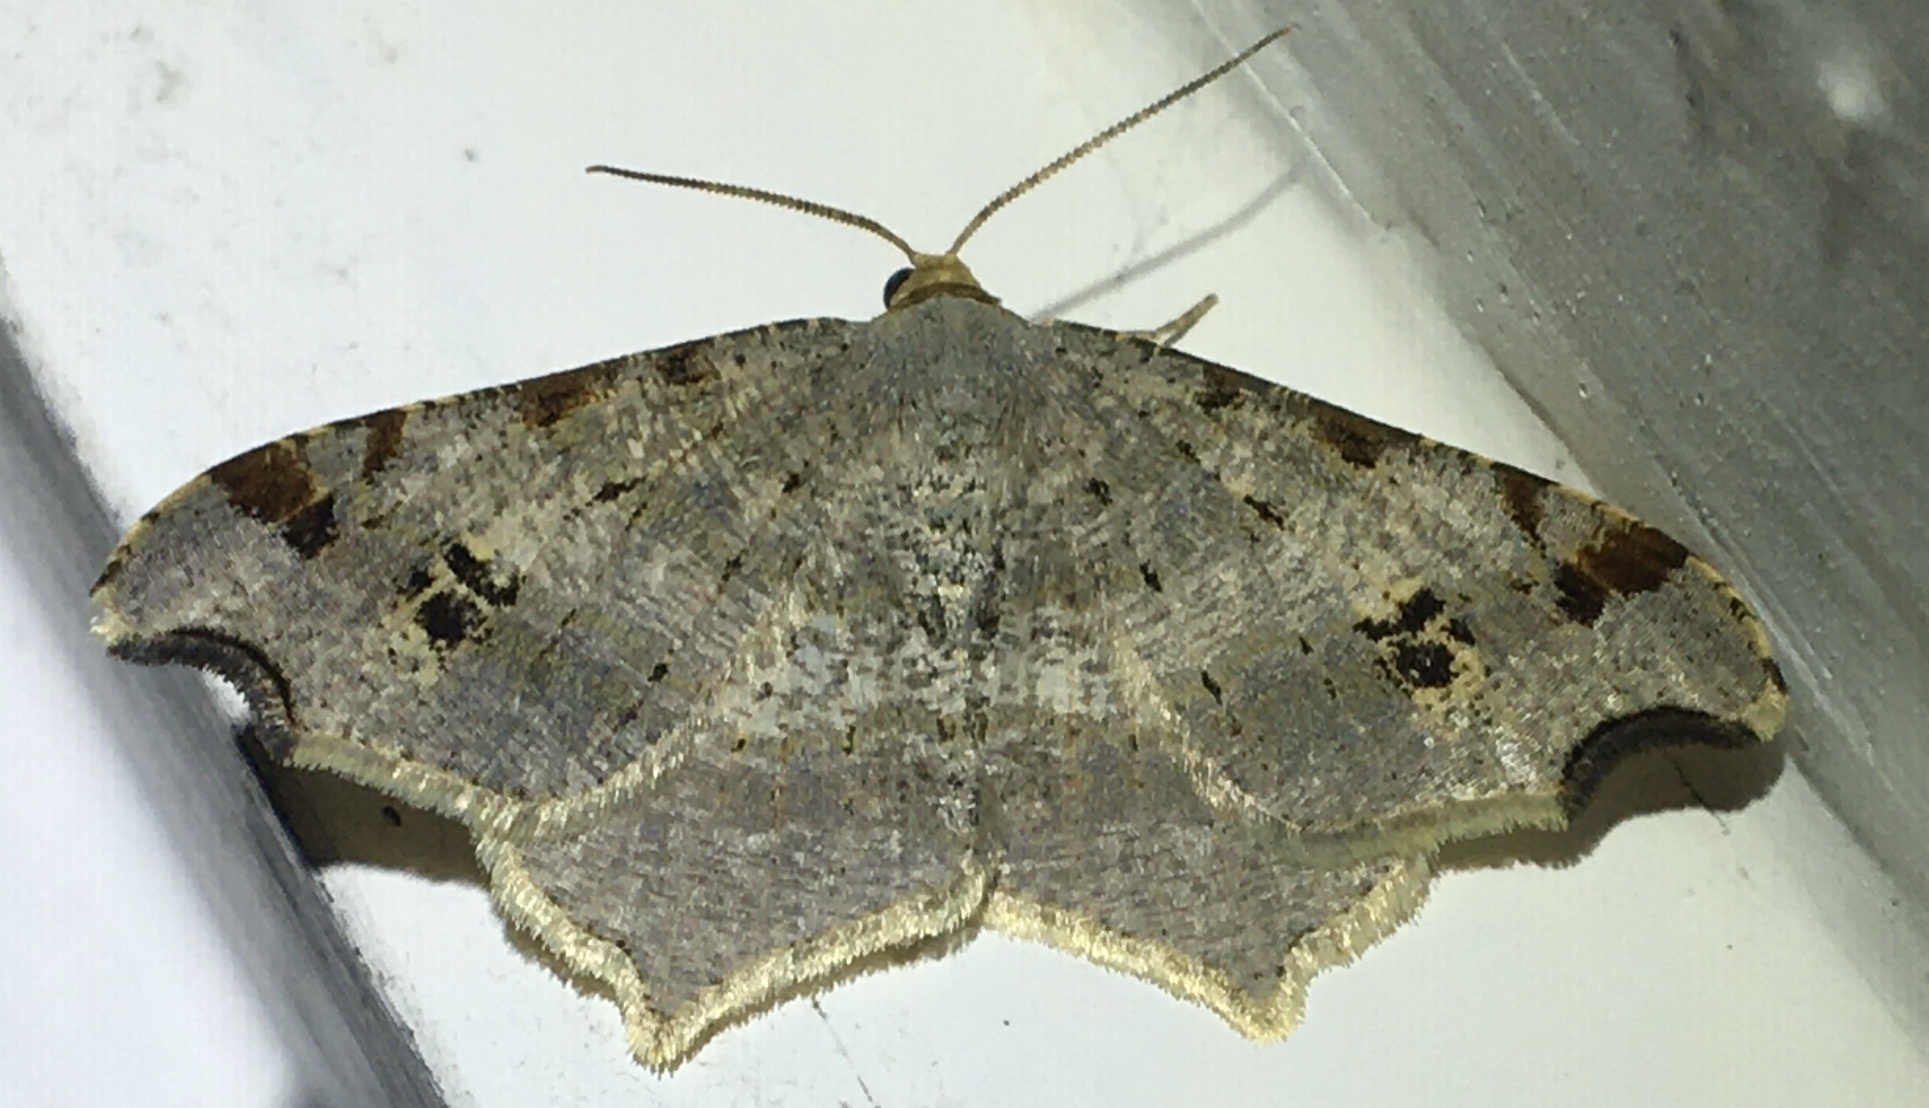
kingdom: Animalia
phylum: Arthropoda
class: Insecta
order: Lepidoptera
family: Geometridae
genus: Macaria
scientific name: Macaria alternata
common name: Sharp-angled peacock
